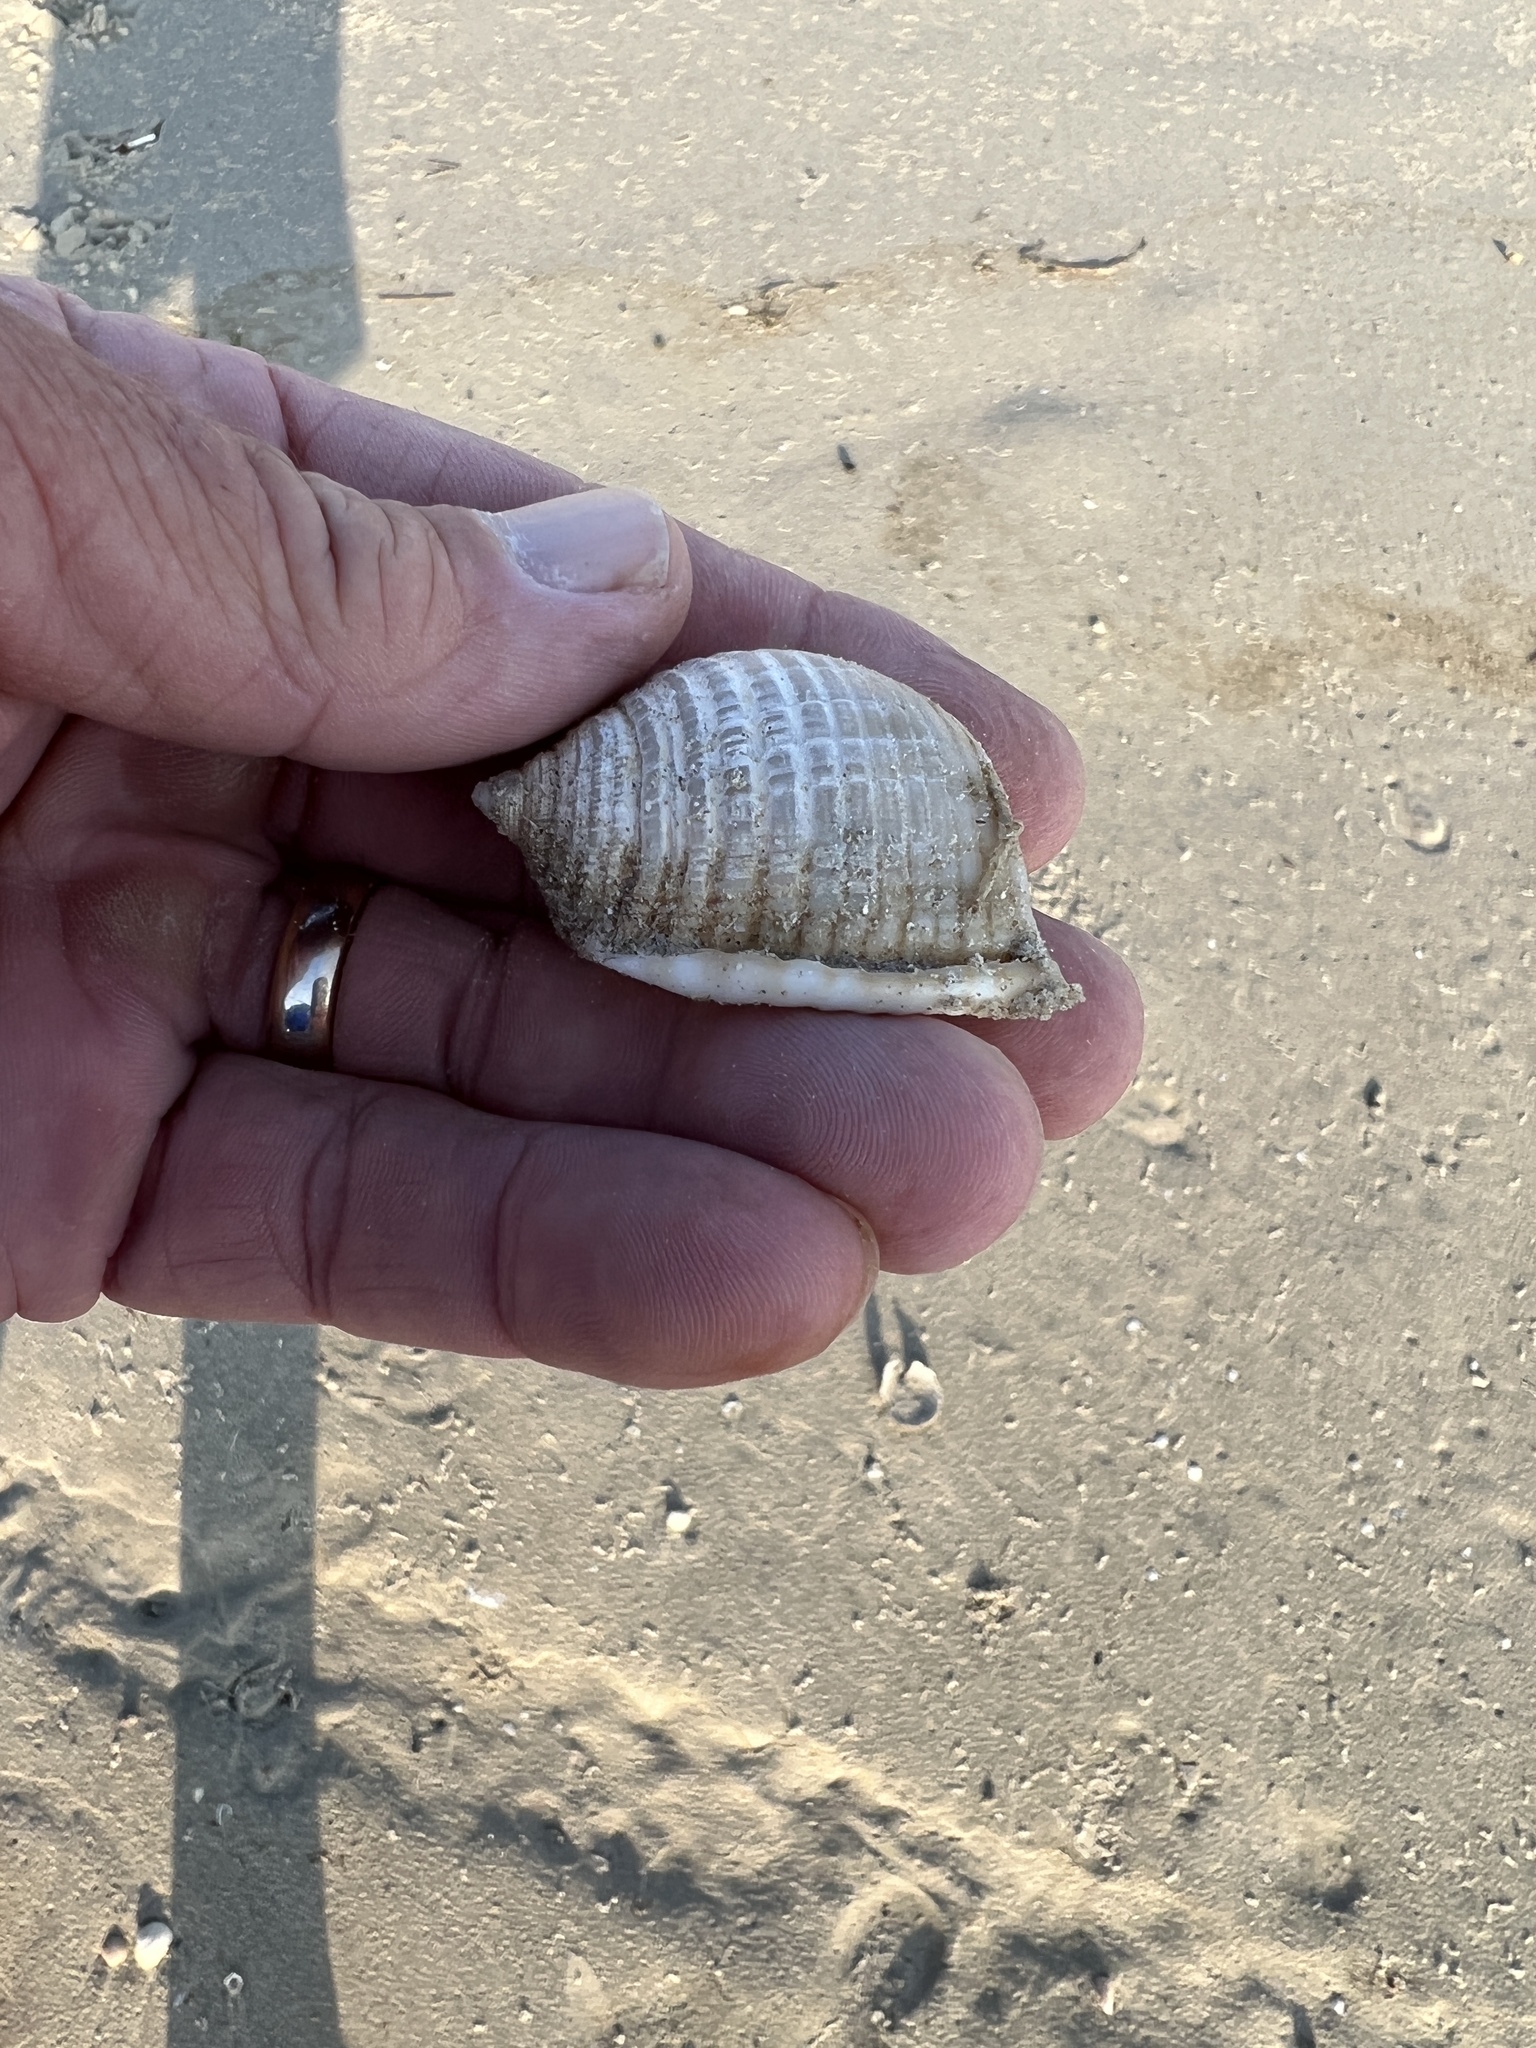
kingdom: Animalia
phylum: Mollusca
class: Gastropoda
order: Littorinimorpha
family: Cassidae
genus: Semicassis
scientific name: Semicassis granulata
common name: Scotch bonnet
